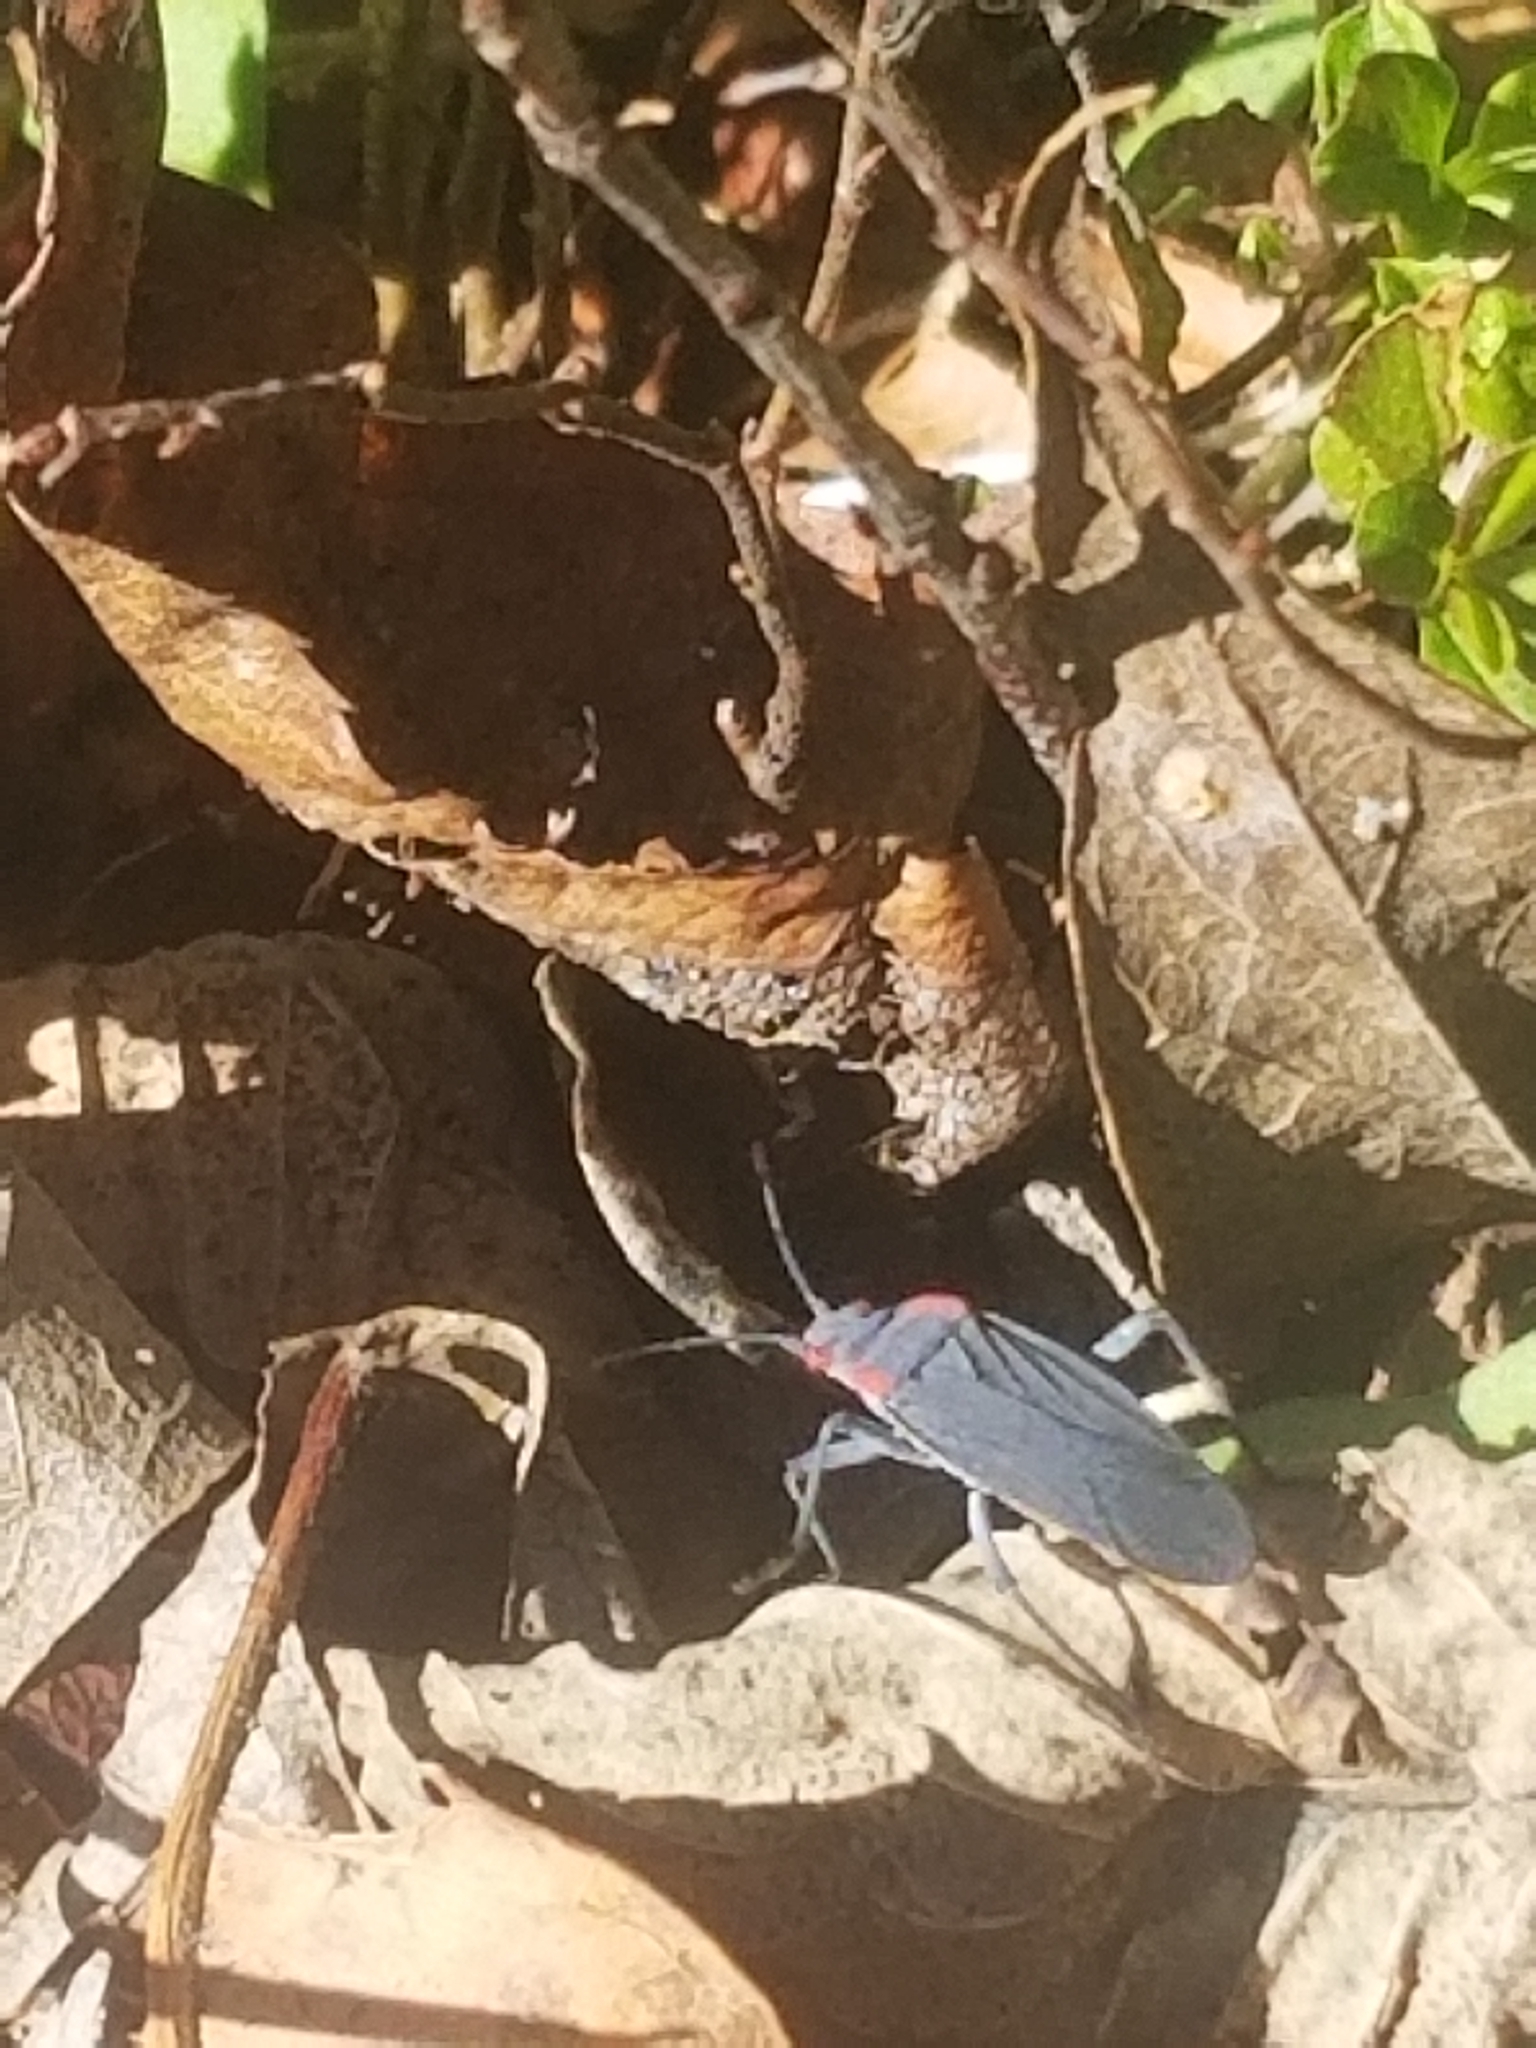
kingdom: Animalia
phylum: Arthropoda
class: Insecta
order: Hemiptera
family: Rhopalidae
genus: Jadera
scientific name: Jadera haematoloma
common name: Red-shouldered bug
